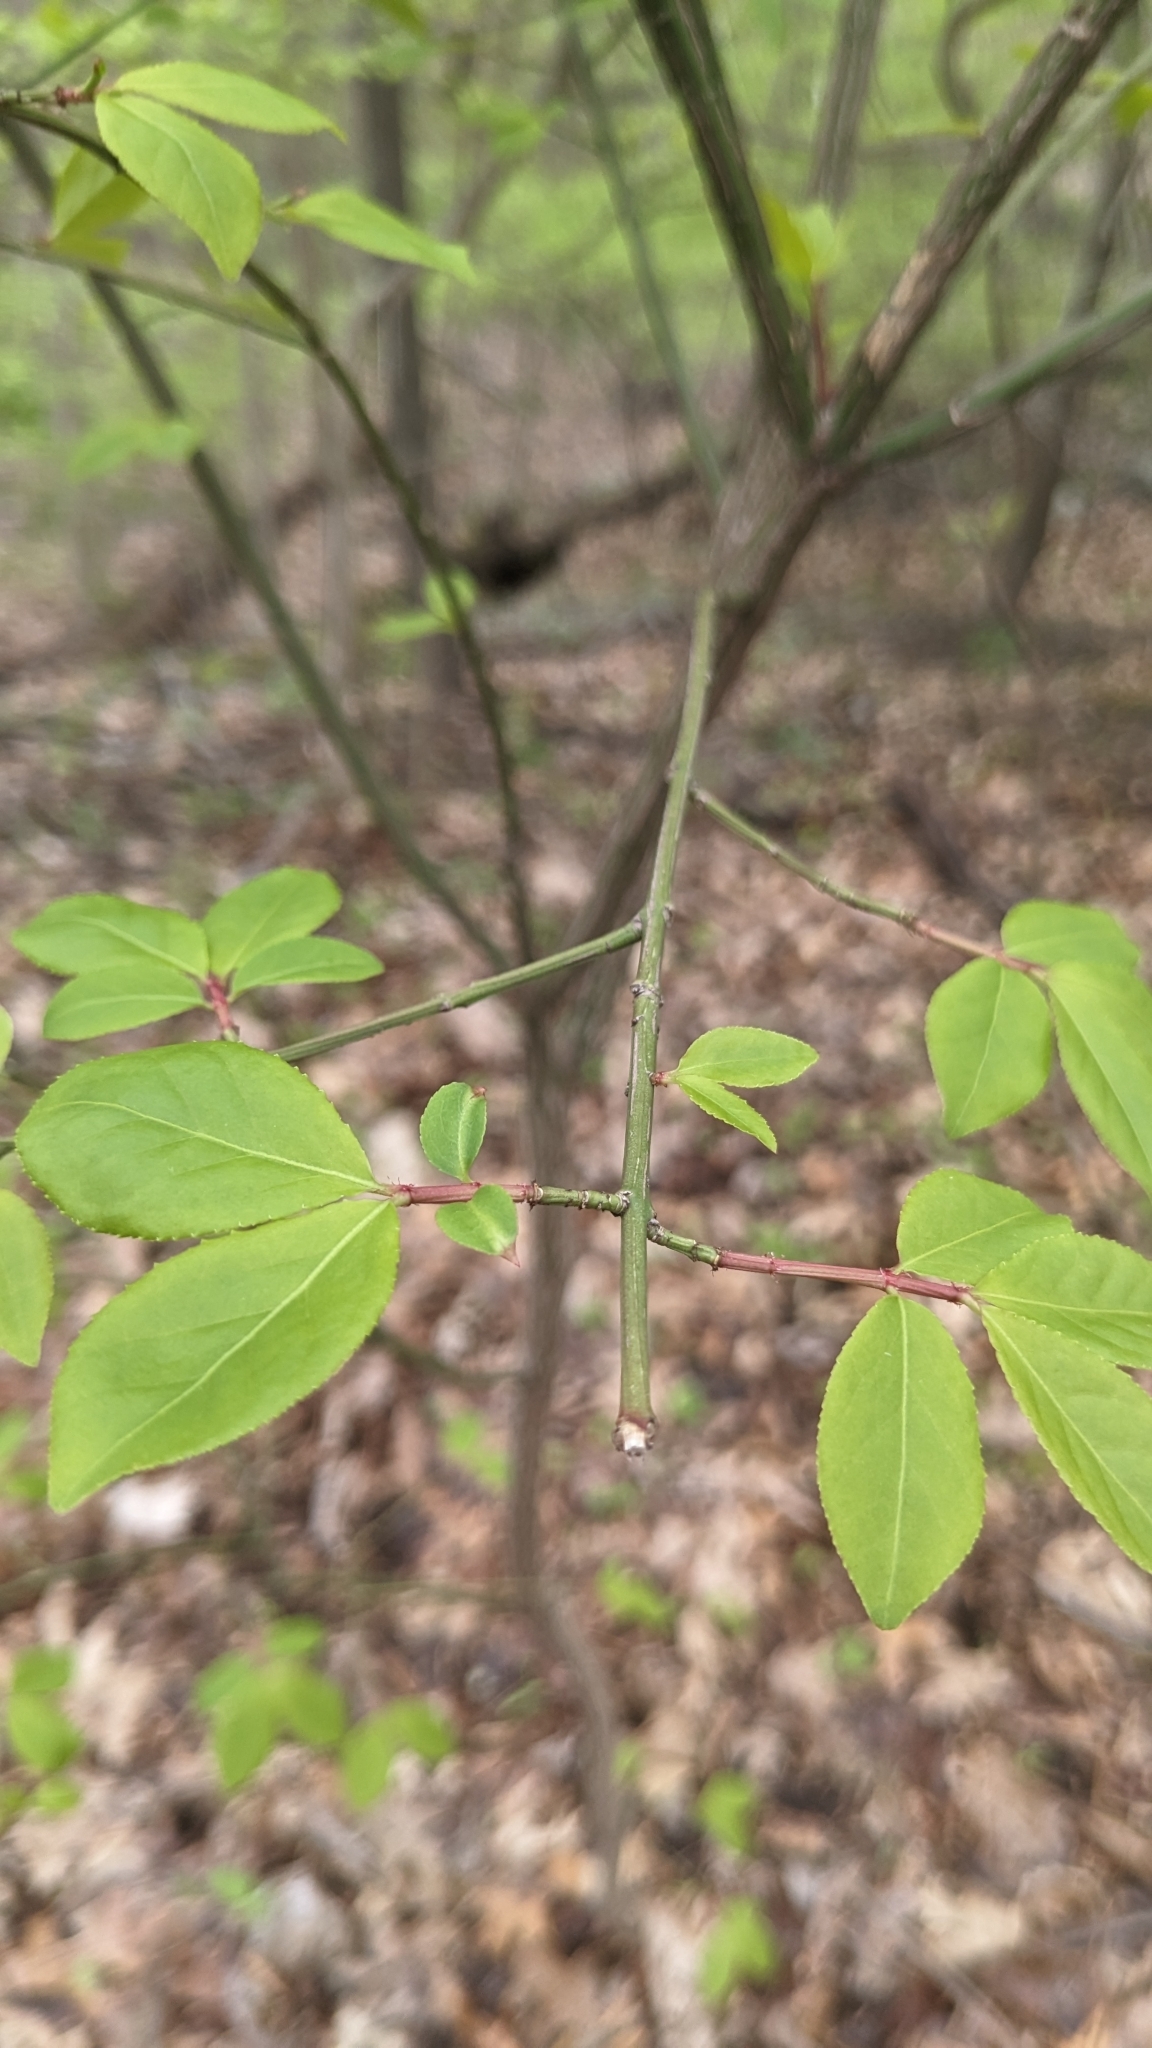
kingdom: Plantae
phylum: Tracheophyta
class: Magnoliopsida
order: Celastrales
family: Celastraceae
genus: Euonymus
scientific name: Euonymus alatus
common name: Winged euonymus
